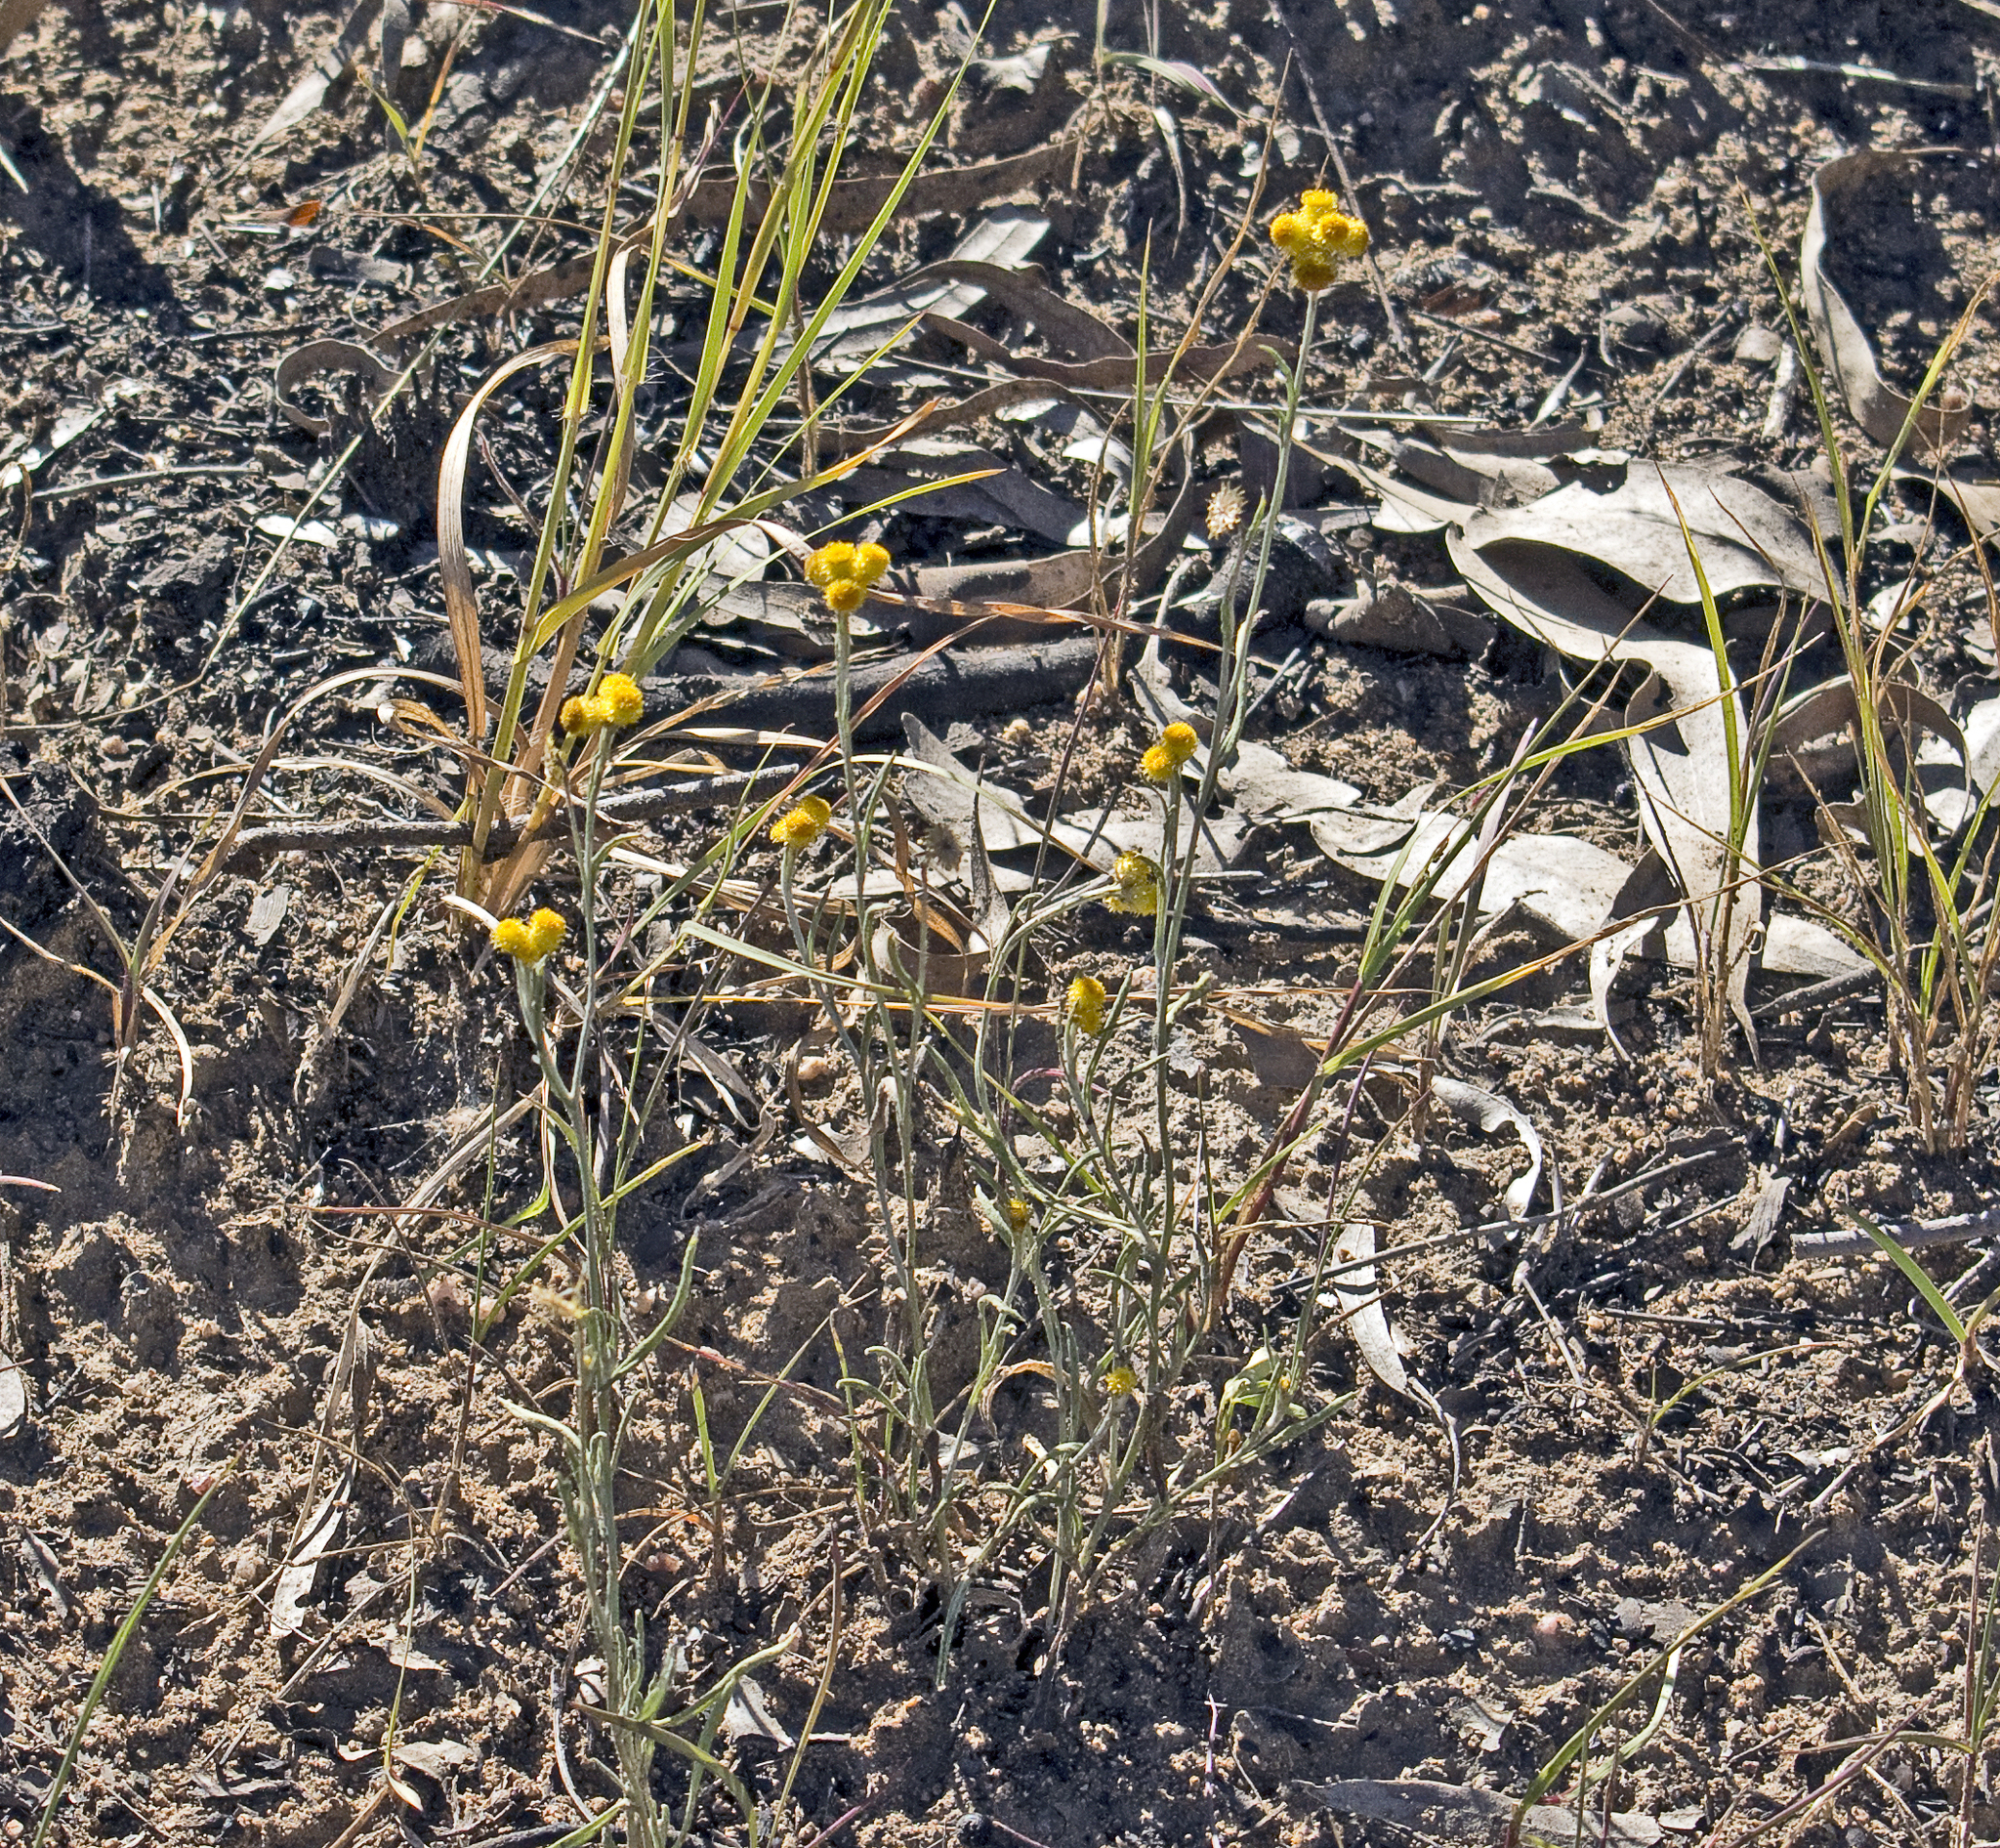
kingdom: Plantae
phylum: Tracheophyta
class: Magnoliopsida
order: Asterales
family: Asteraceae
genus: Chrysocephalum
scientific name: Chrysocephalum apiculatum
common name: Common everlasting
